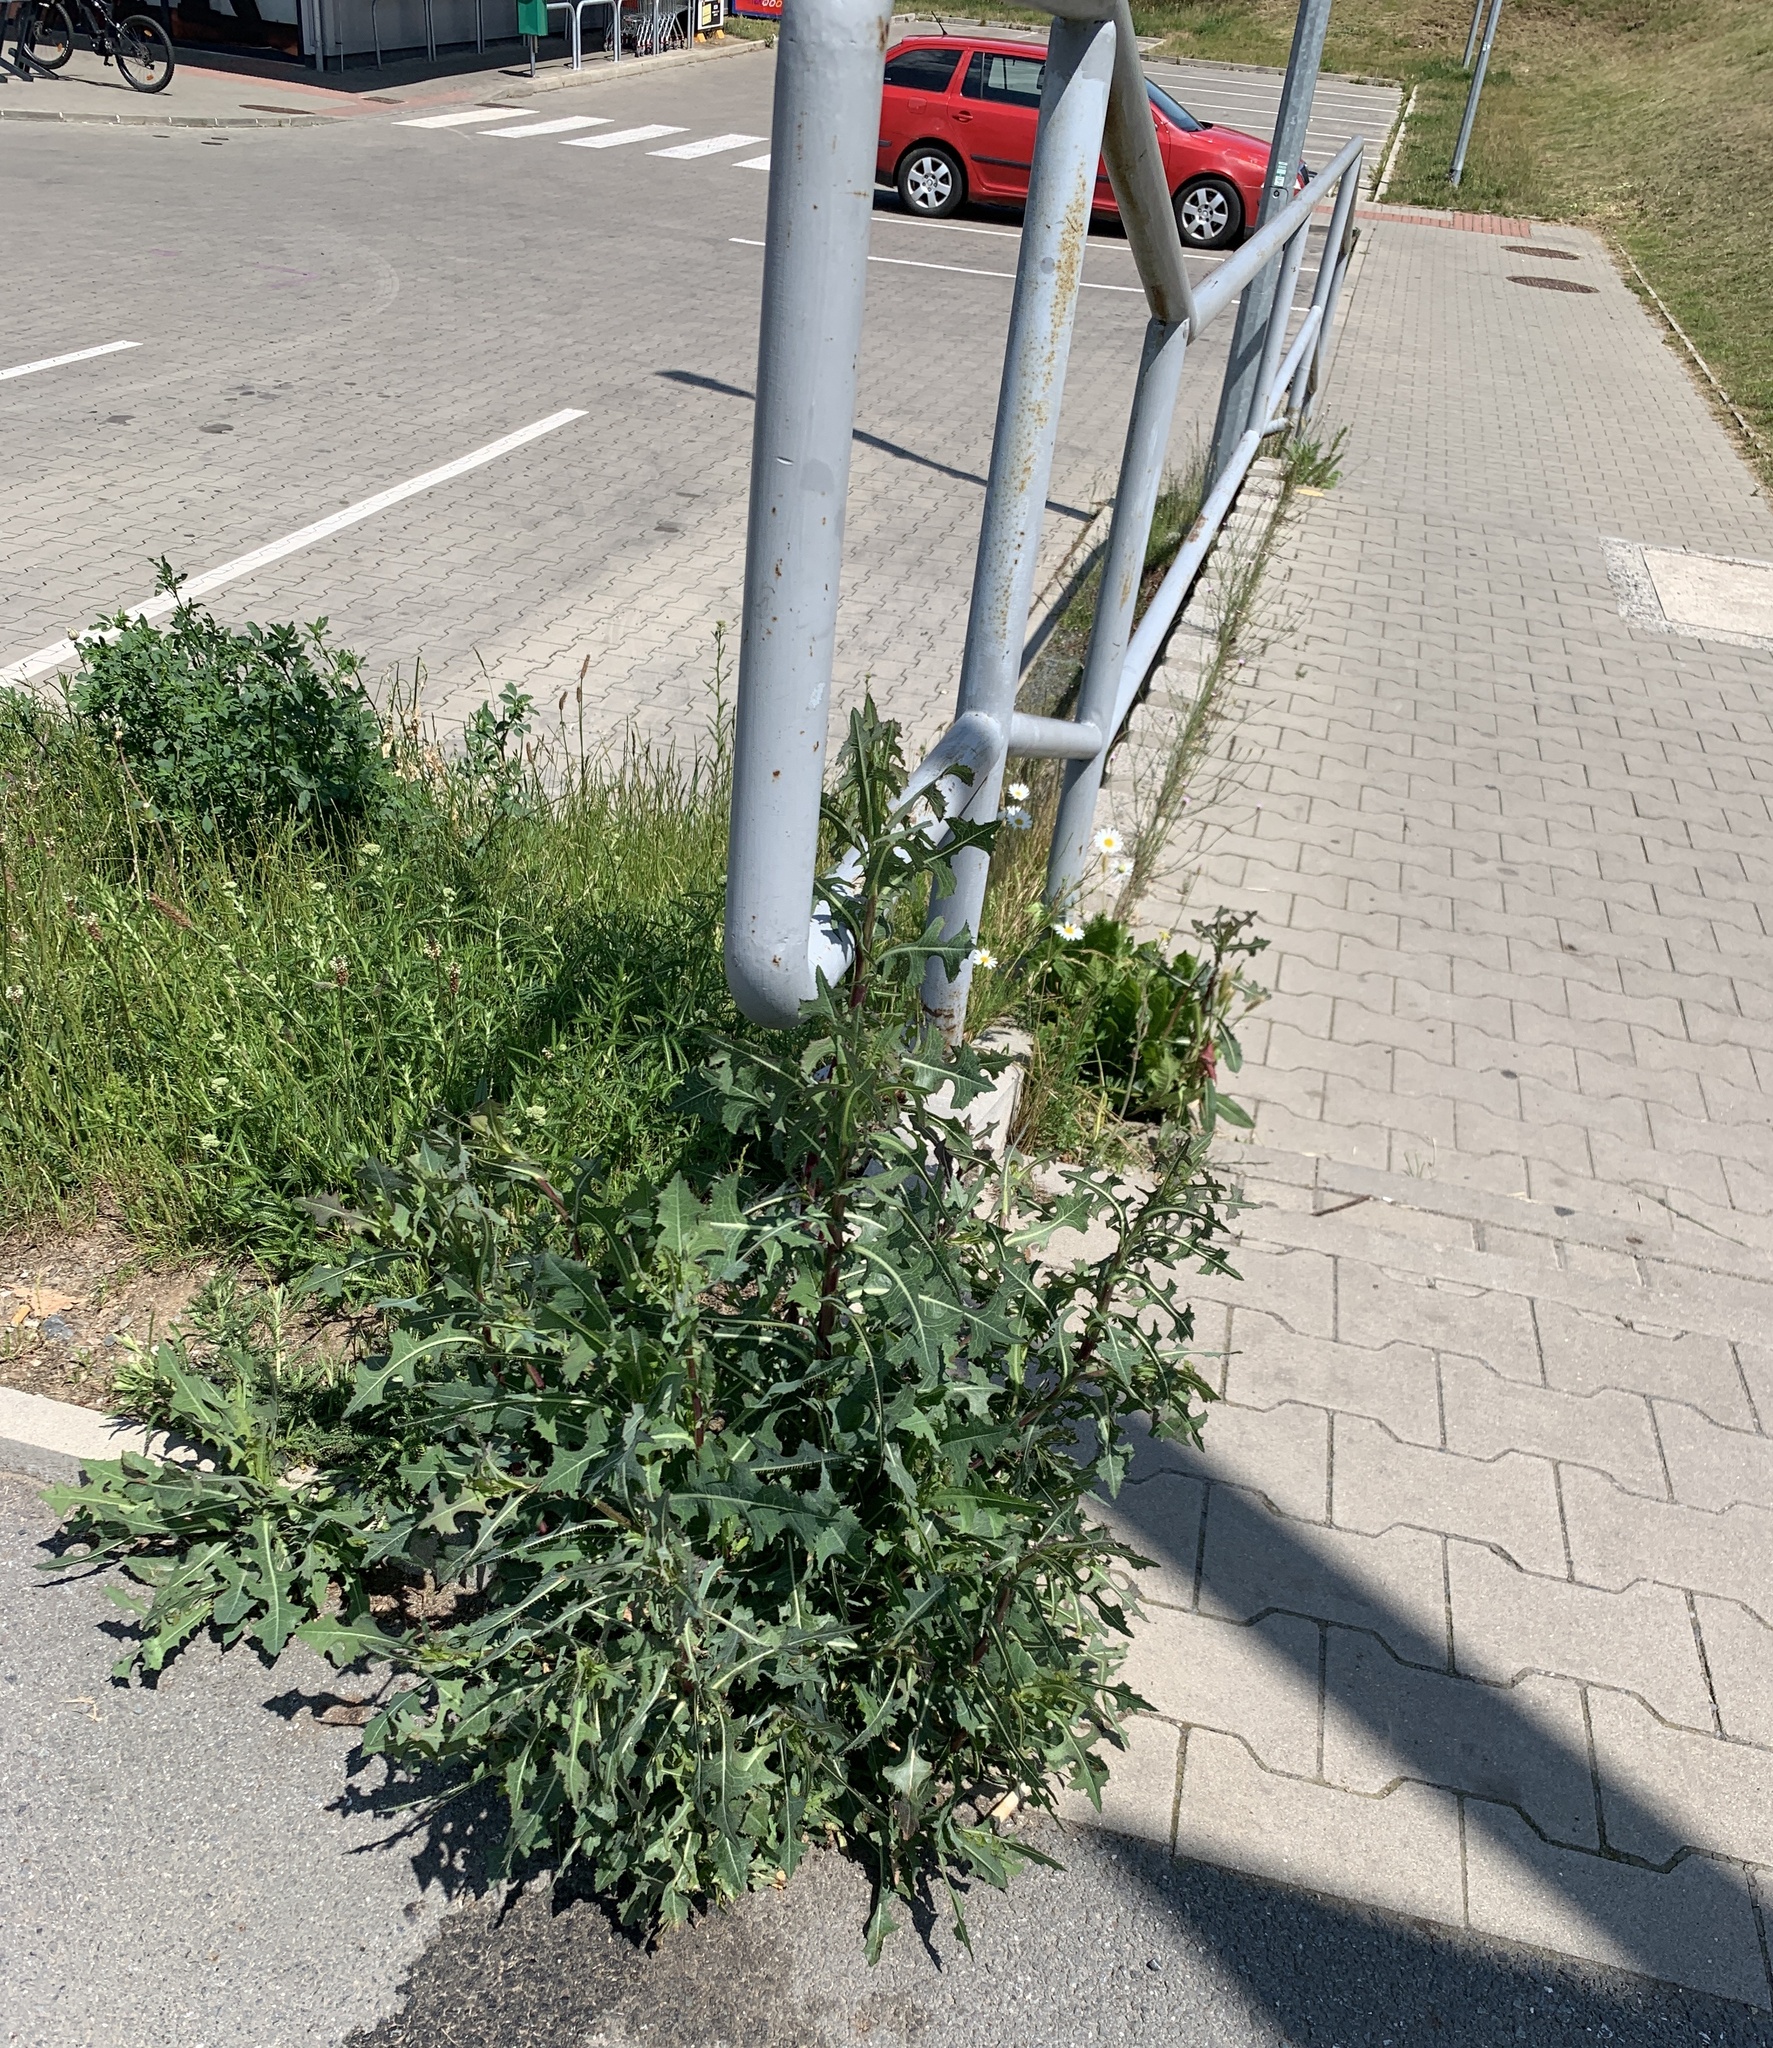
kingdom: Plantae
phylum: Tracheophyta
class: Magnoliopsida
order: Asterales
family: Asteraceae
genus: Lactuca
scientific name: Lactuca serriola
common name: Prickly lettuce
